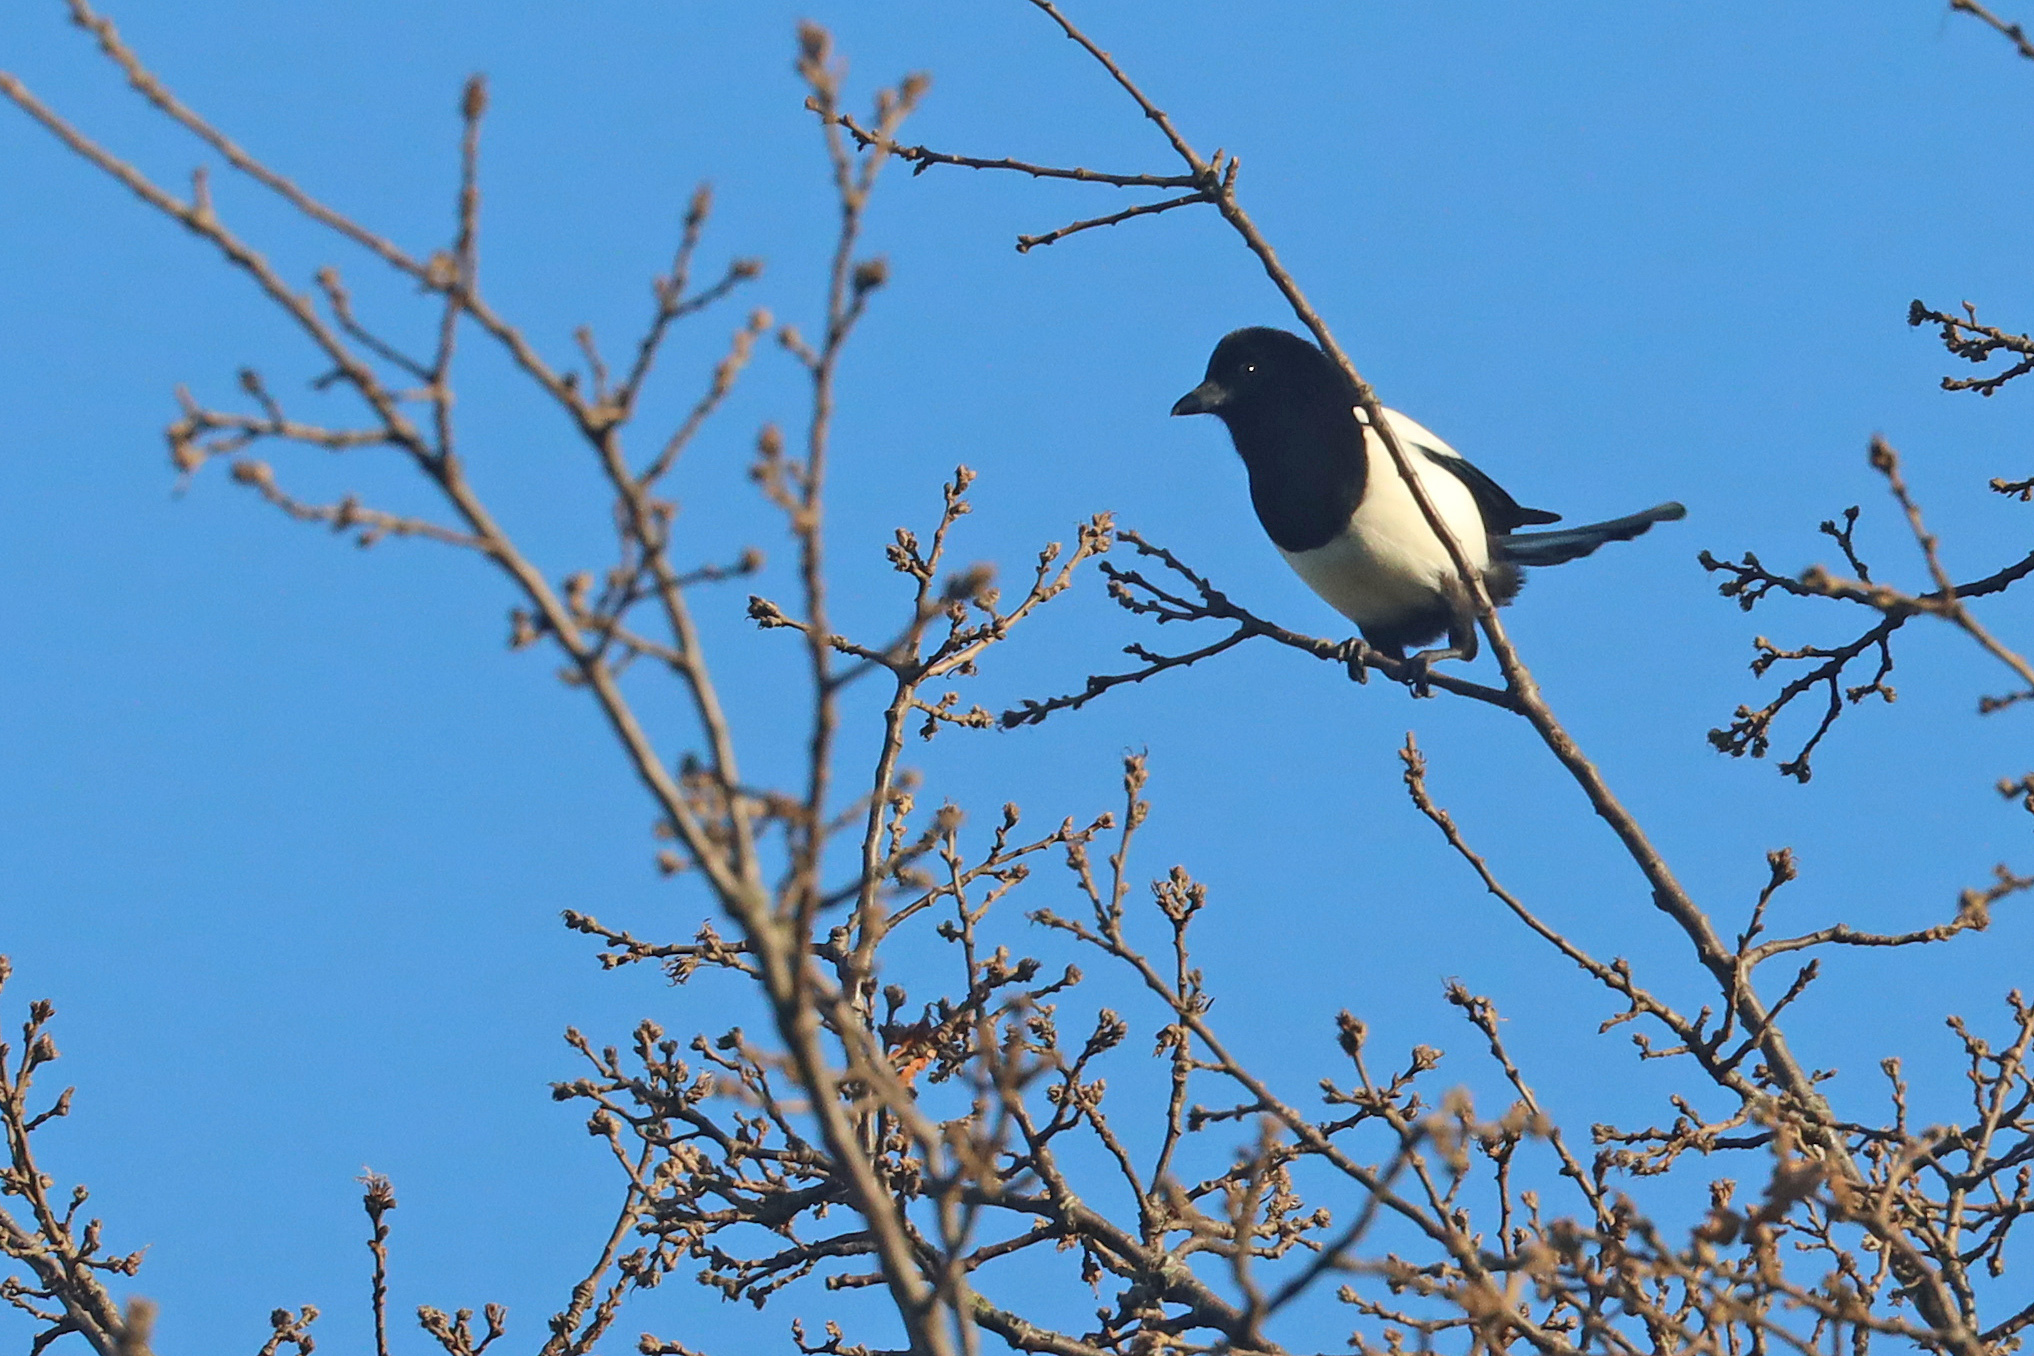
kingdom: Animalia
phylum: Chordata
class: Aves
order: Passeriformes
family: Corvidae
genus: Pica
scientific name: Pica pica
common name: Eurasian magpie
